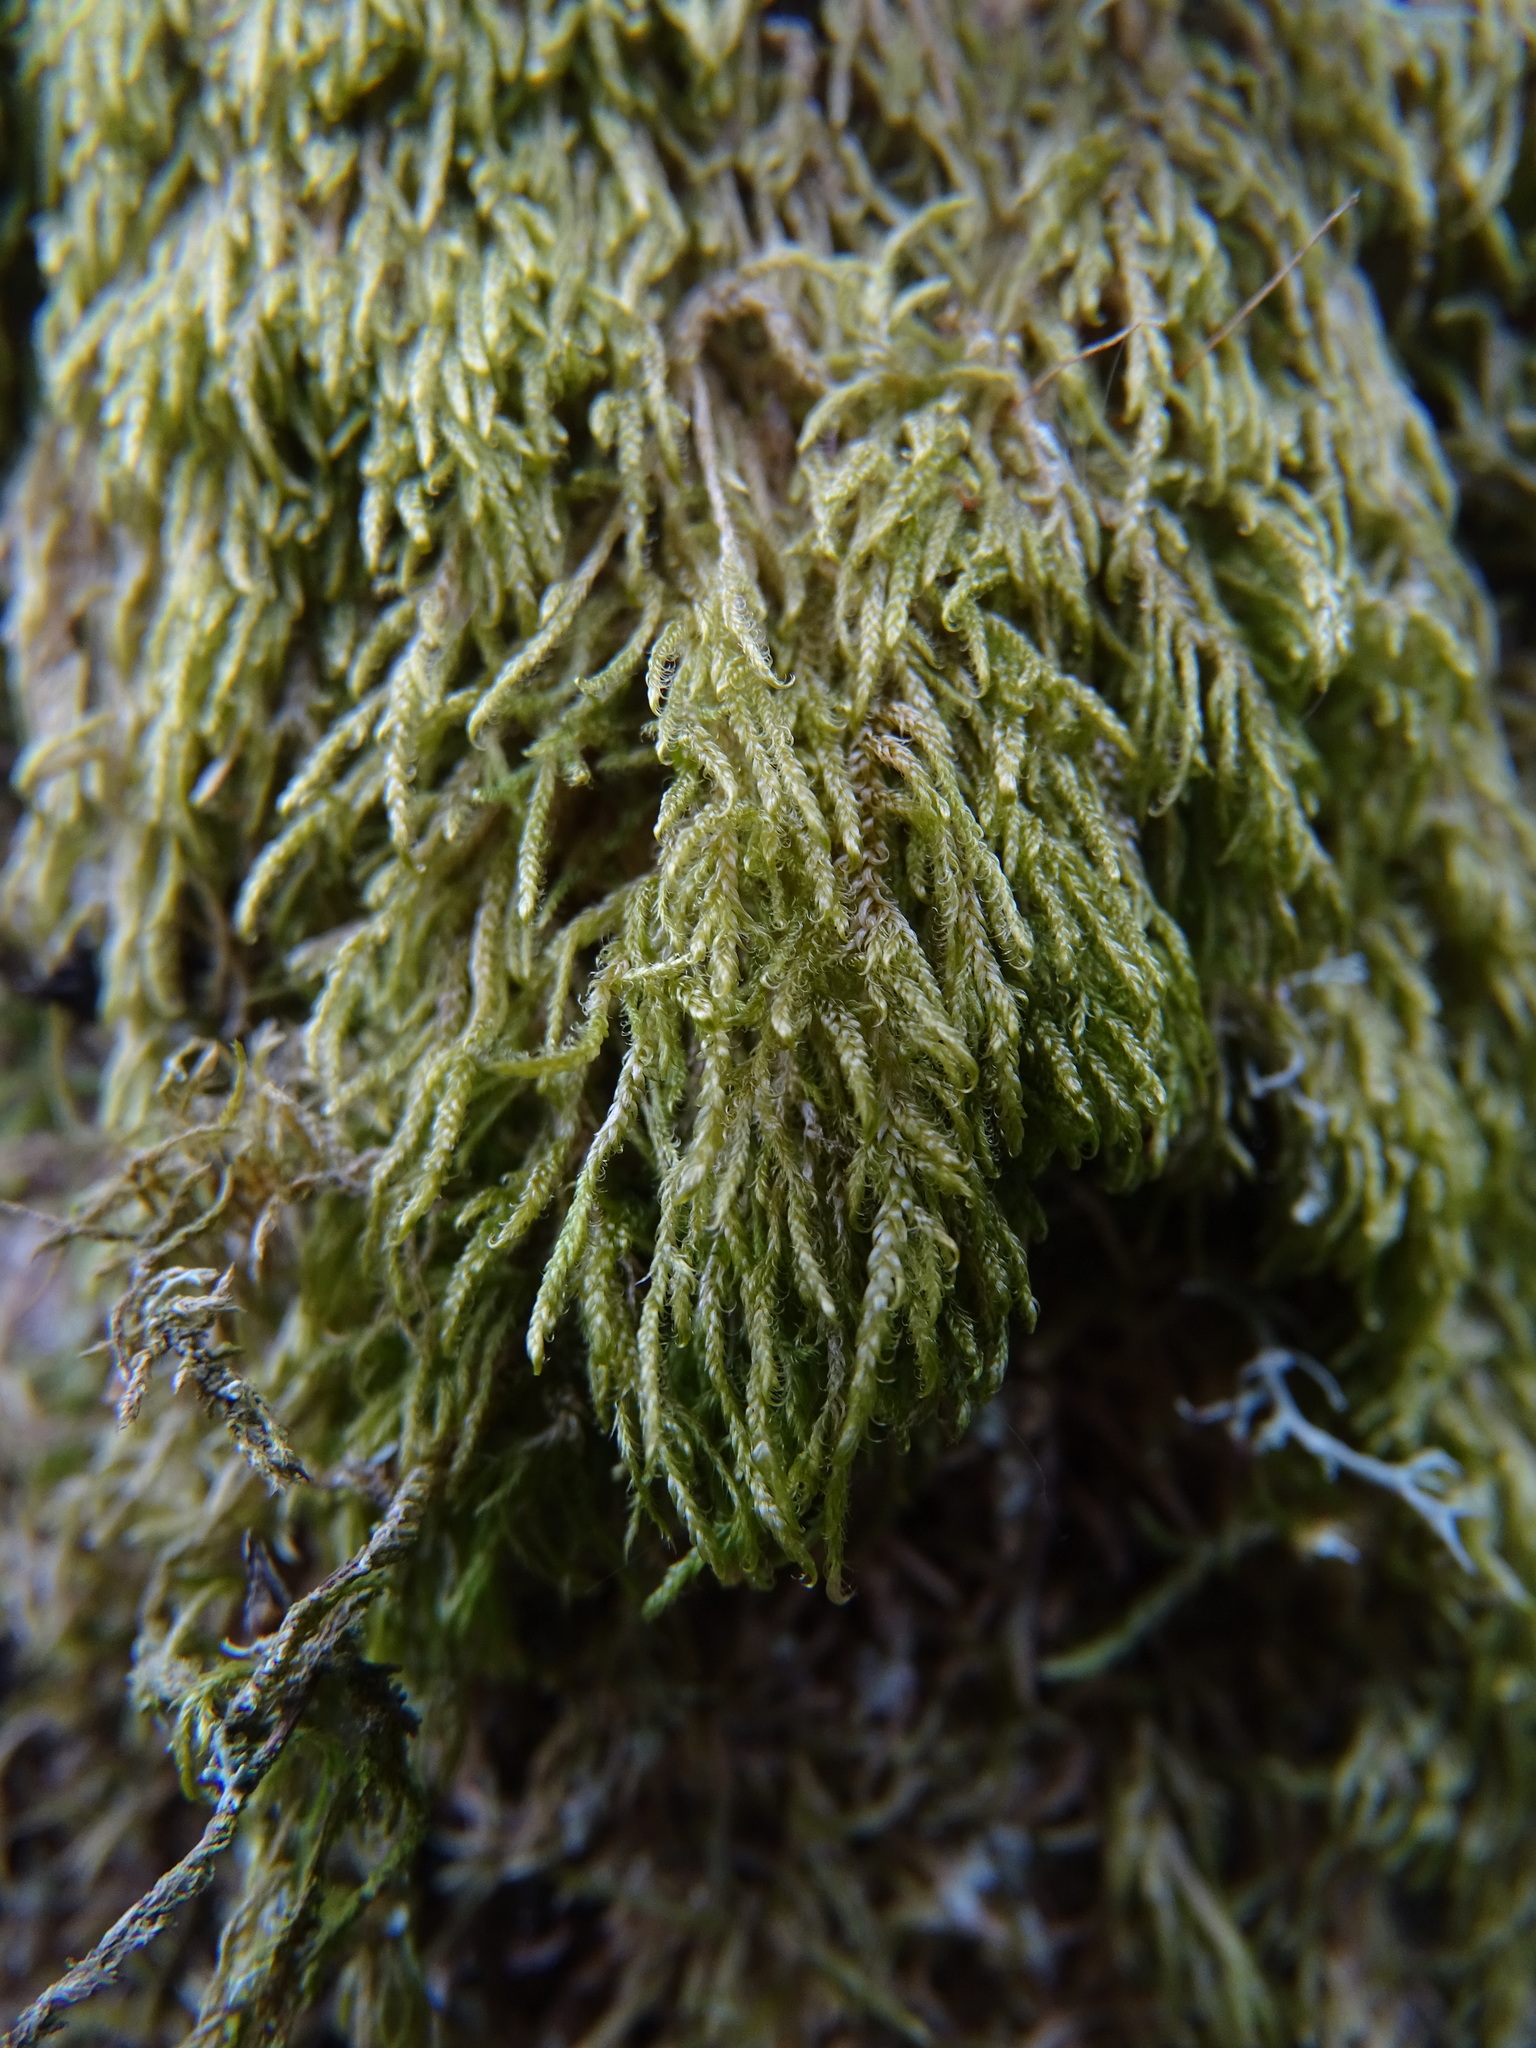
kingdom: Plantae
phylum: Bryophyta
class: Bryopsida
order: Hypnales
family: Hypnaceae
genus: Hypnum
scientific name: Hypnum cupressiforme
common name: Cypress-leaved plait-moss
